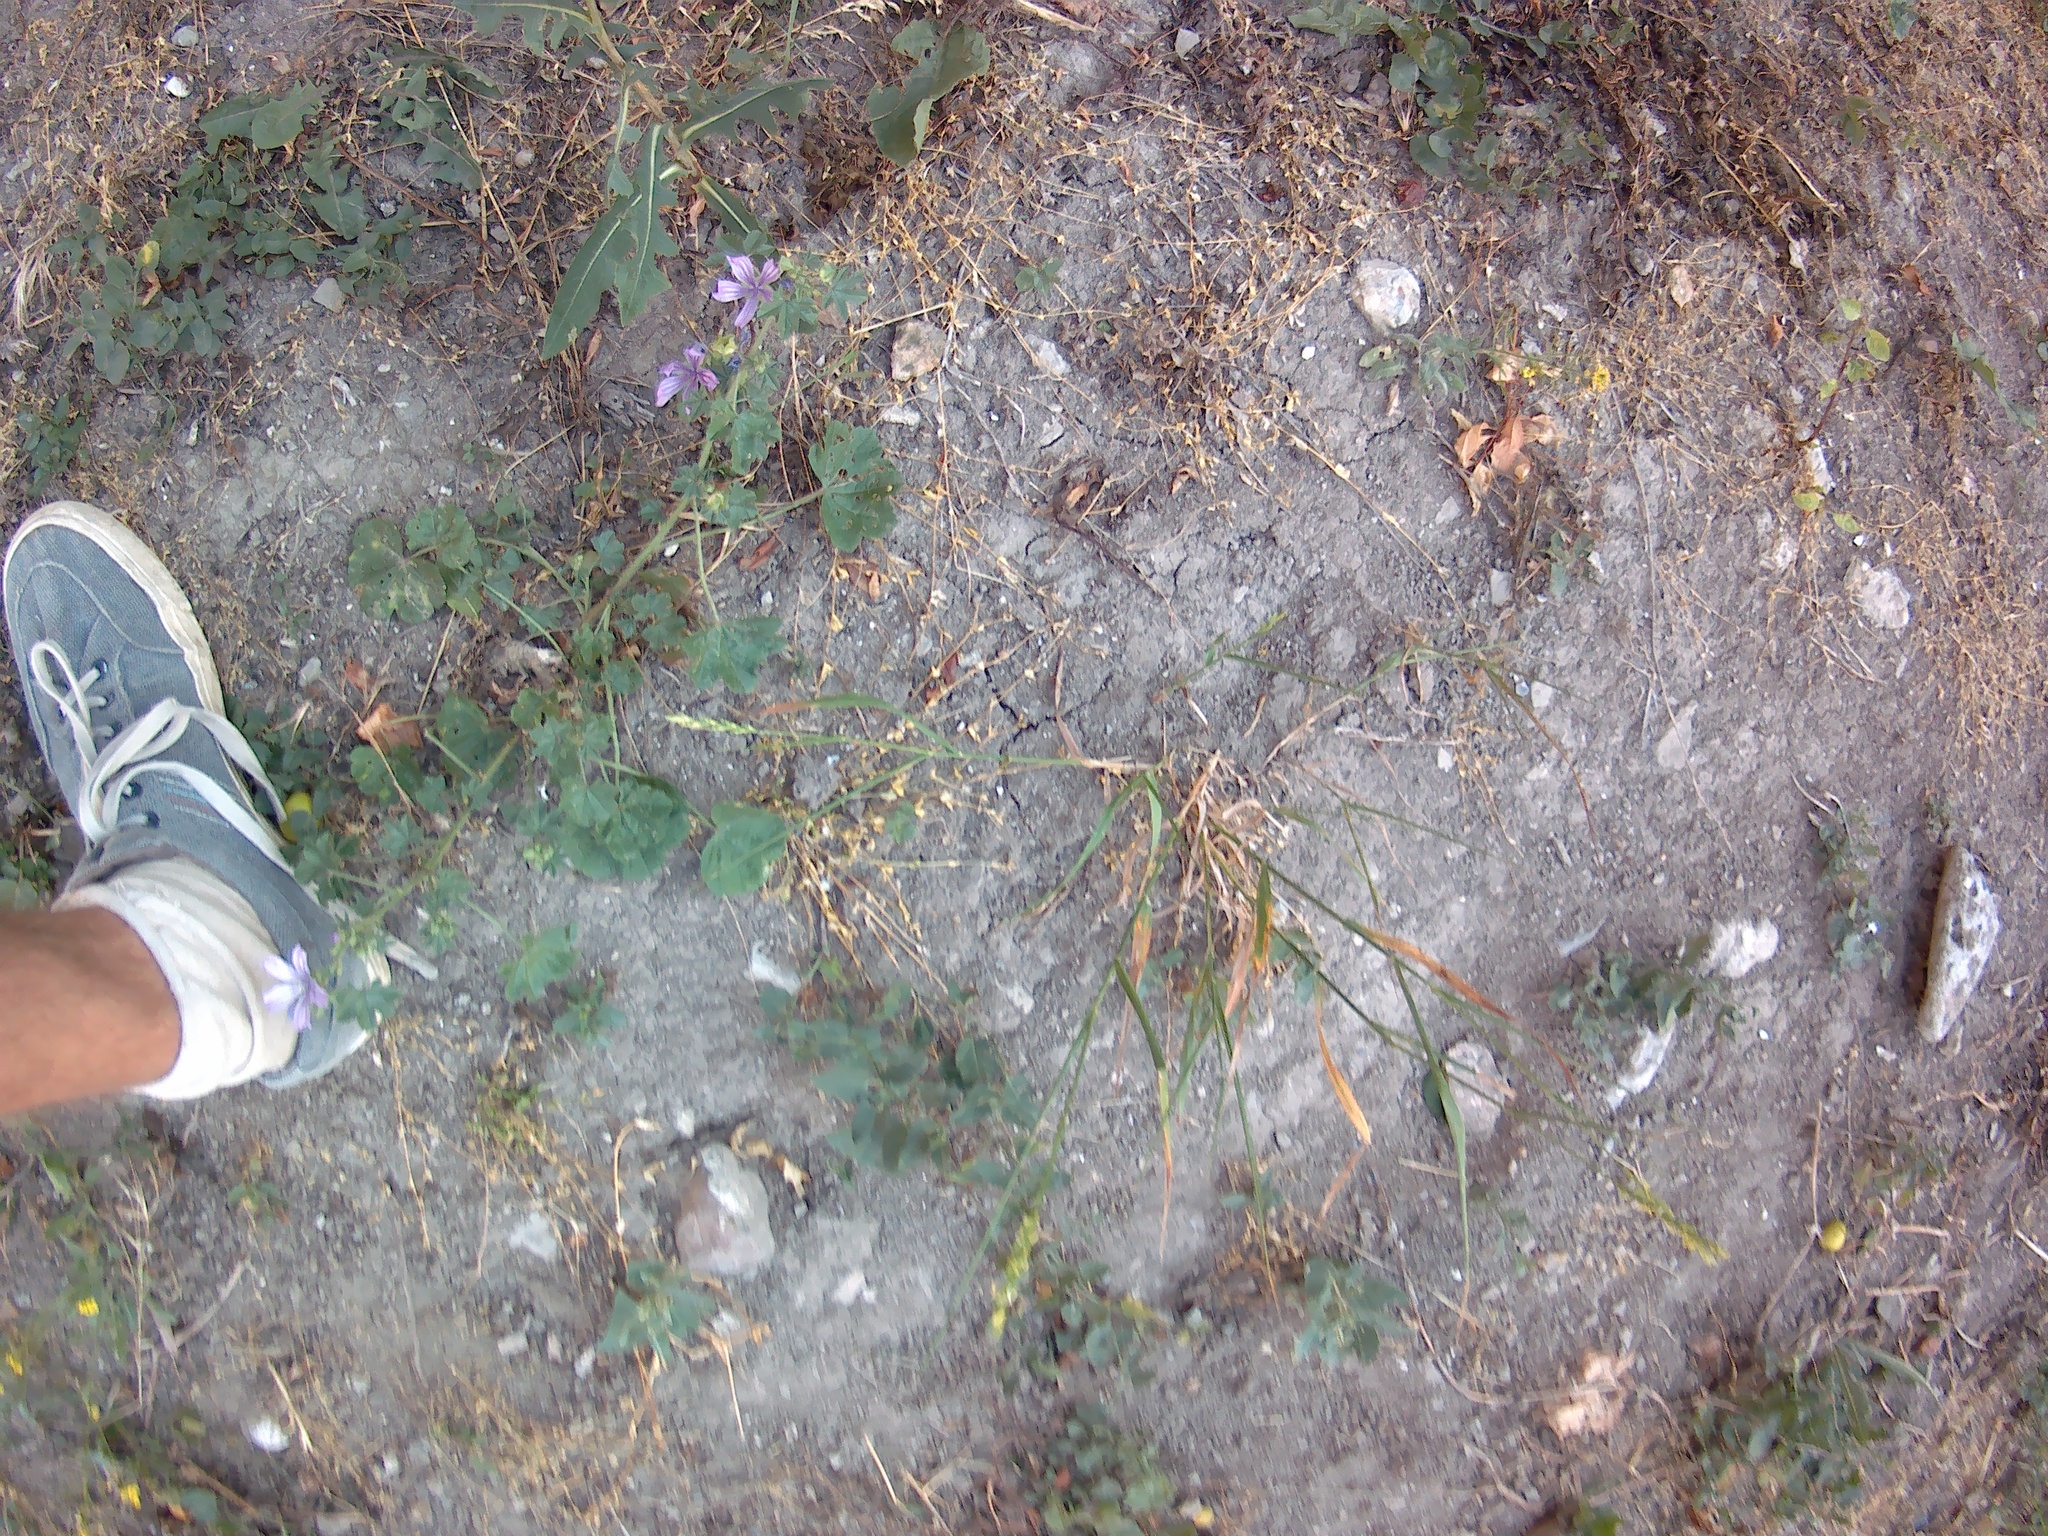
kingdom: Plantae
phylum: Tracheophyta
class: Magnoliopsida
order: Malvales
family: Malvaceae
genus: Malva
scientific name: Malva sylvestris
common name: Common mallow
